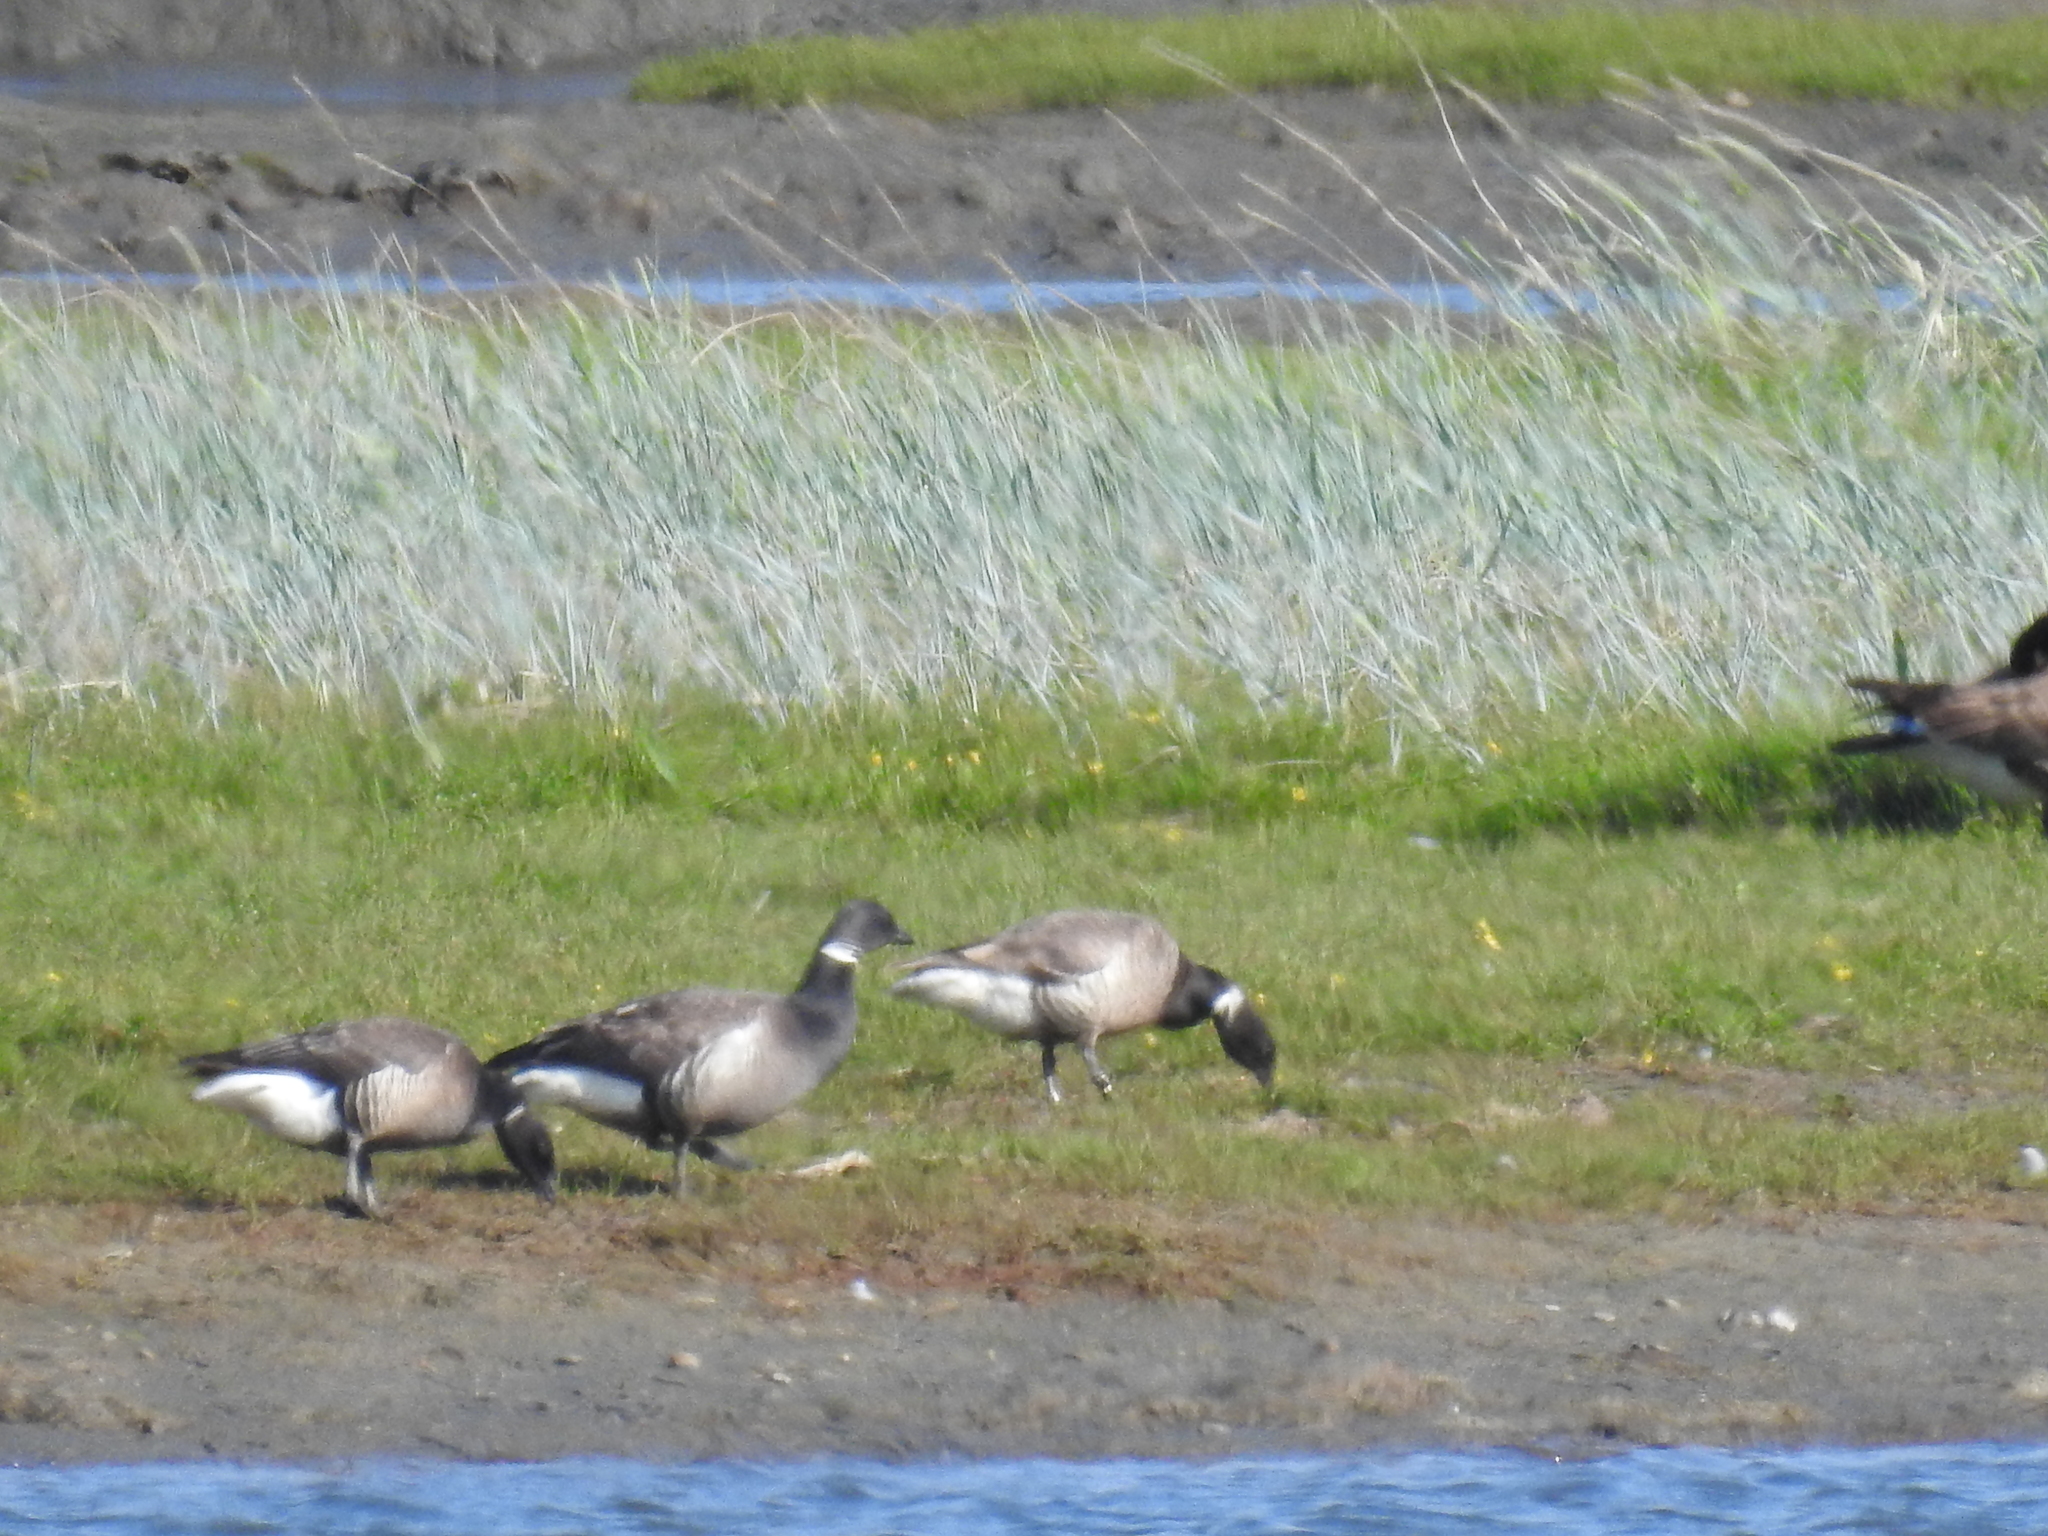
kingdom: Animalia
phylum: Chordata
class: Aves
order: Anseriformes
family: Anatidae
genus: Branta
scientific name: Branta bernicla
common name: Brant goose
